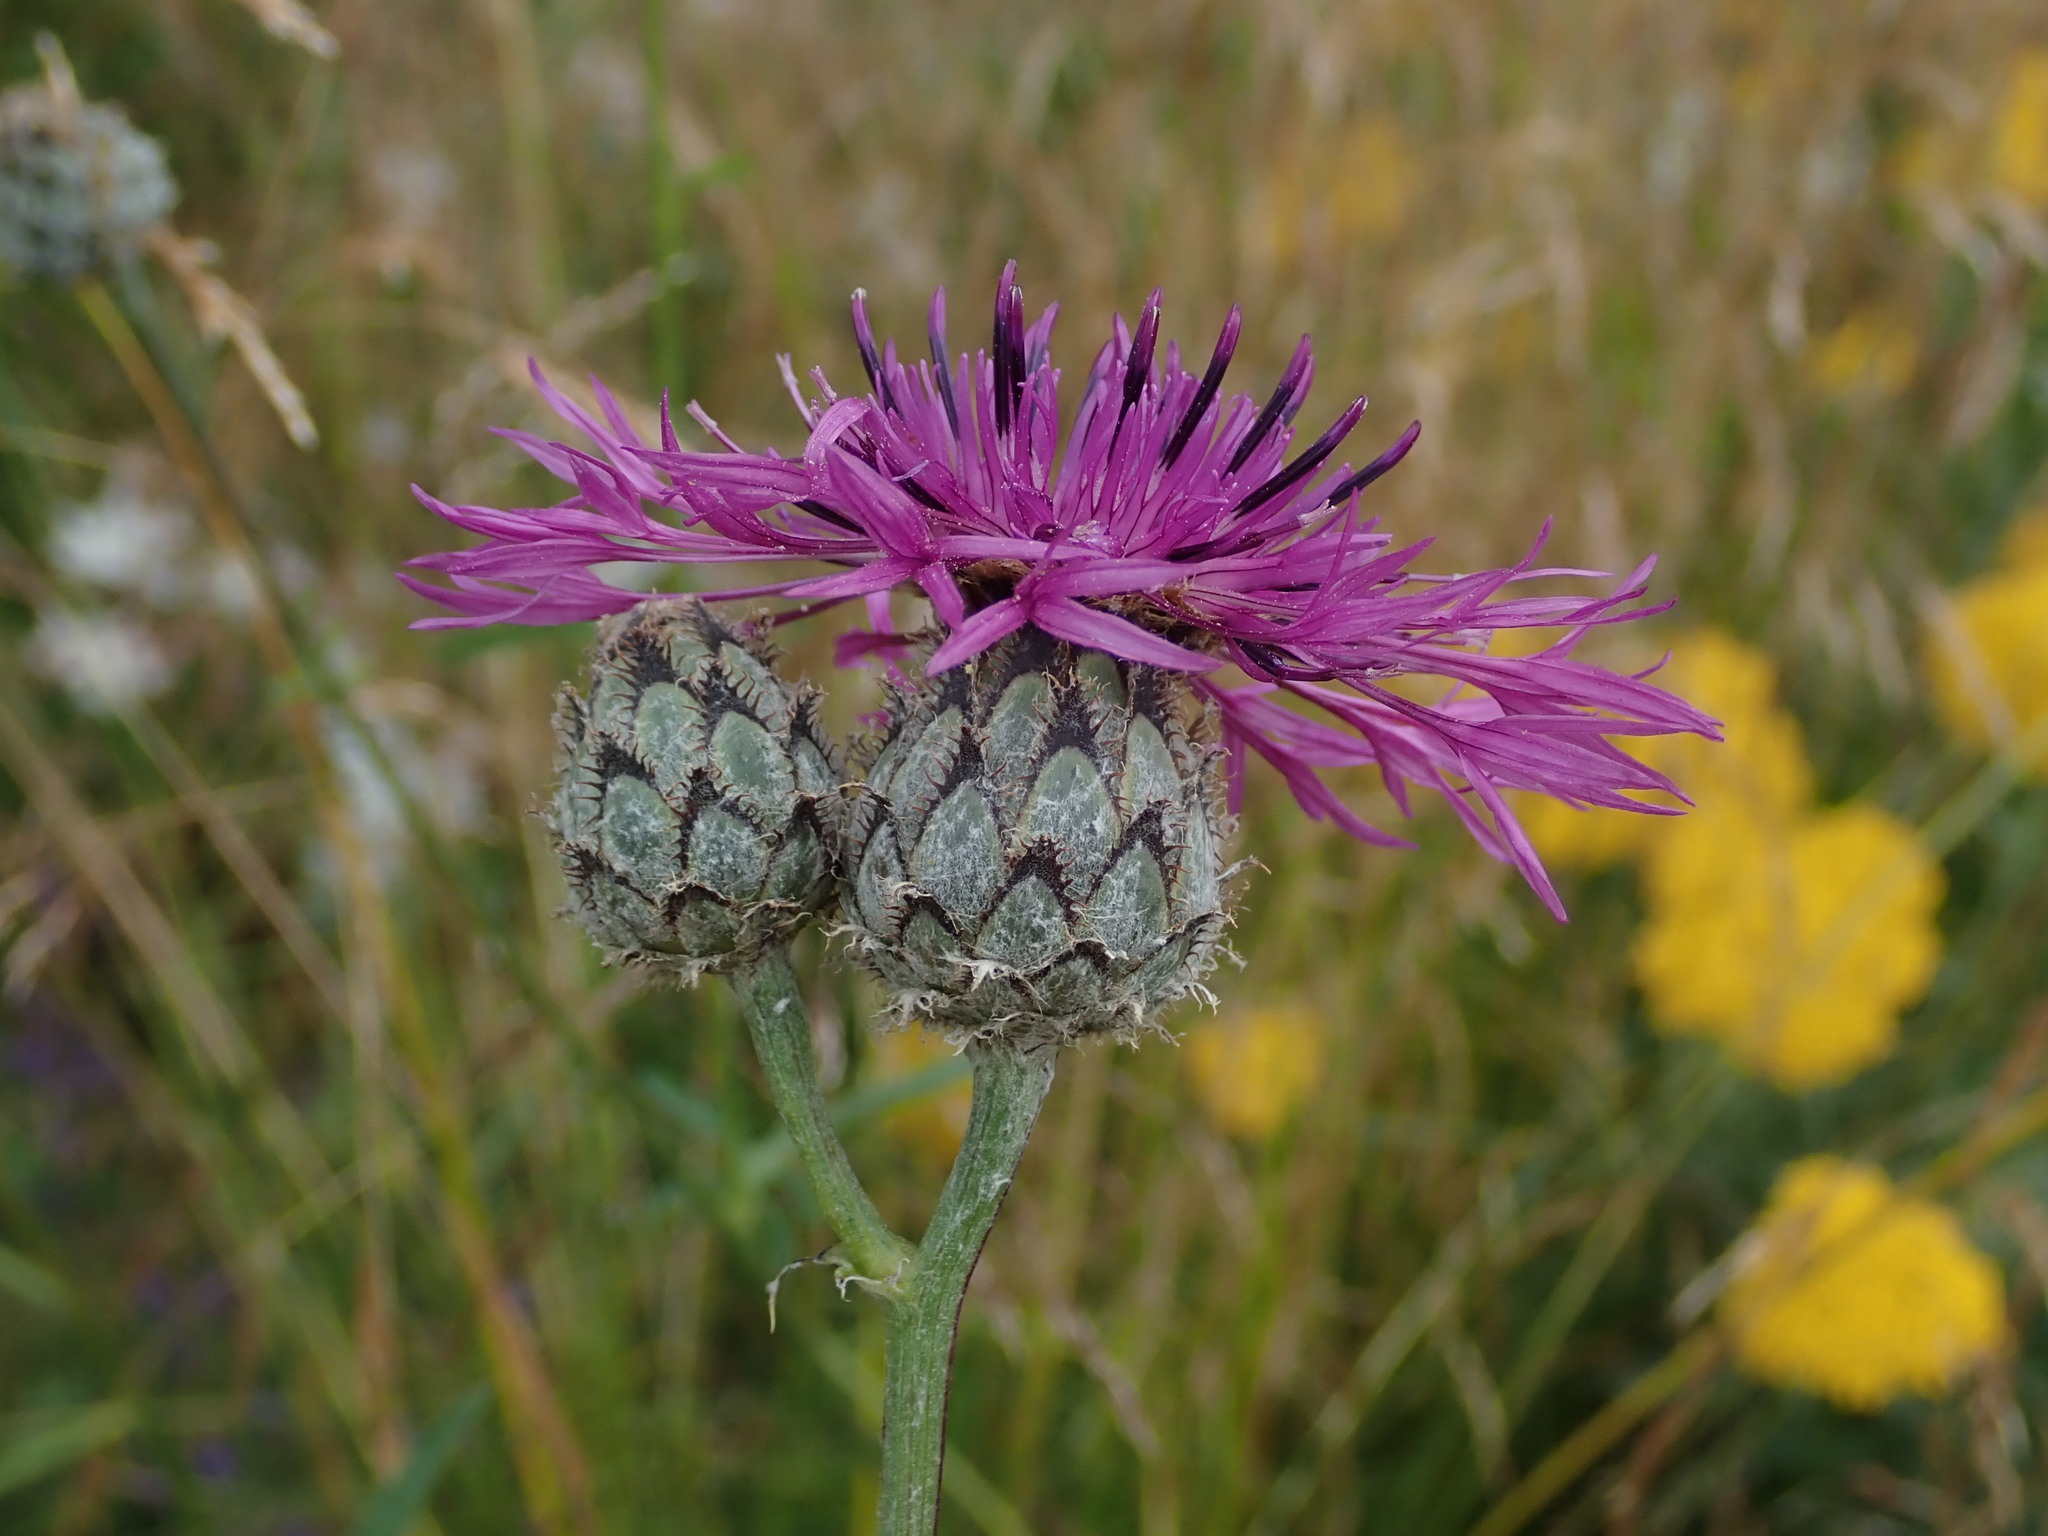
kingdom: Plantae
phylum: Tracheophyta
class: Magnoliopsida
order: Asterales
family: Asteraceae
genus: Centaurea
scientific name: Centaurea scabiosa
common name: Greater knapweed
